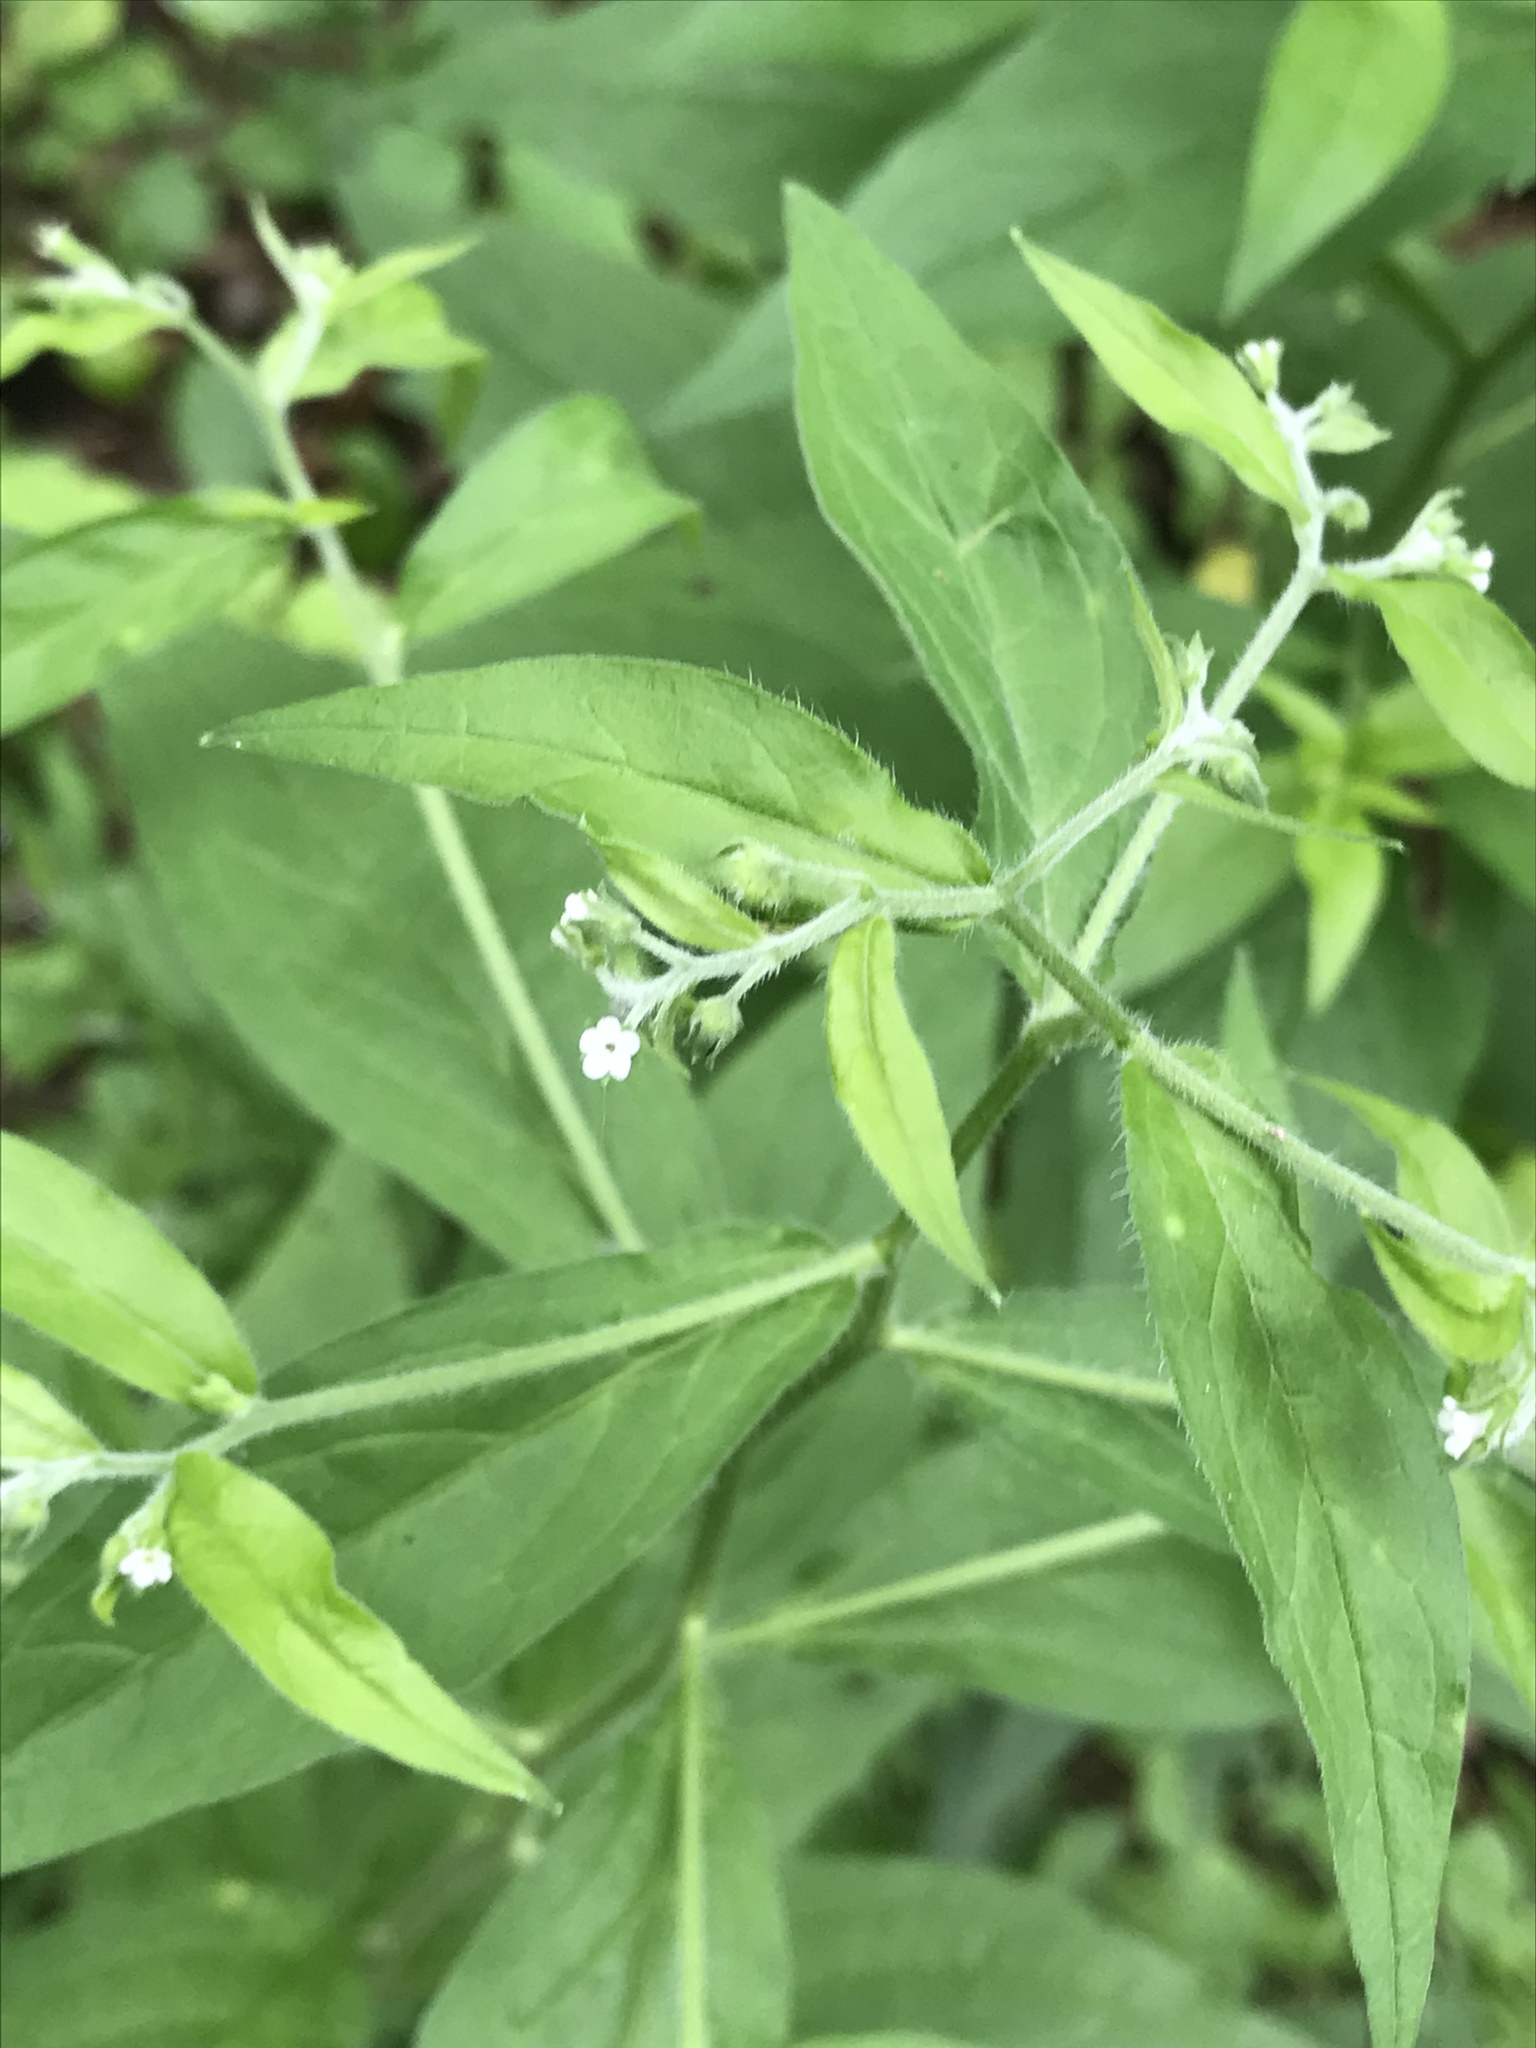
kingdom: Plantae
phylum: Tracheophyta
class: Magnoliopsida
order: Boraginales
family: Boraginaceae
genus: Hackelia
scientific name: Hackelia virginiana
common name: Beggar's-lice
